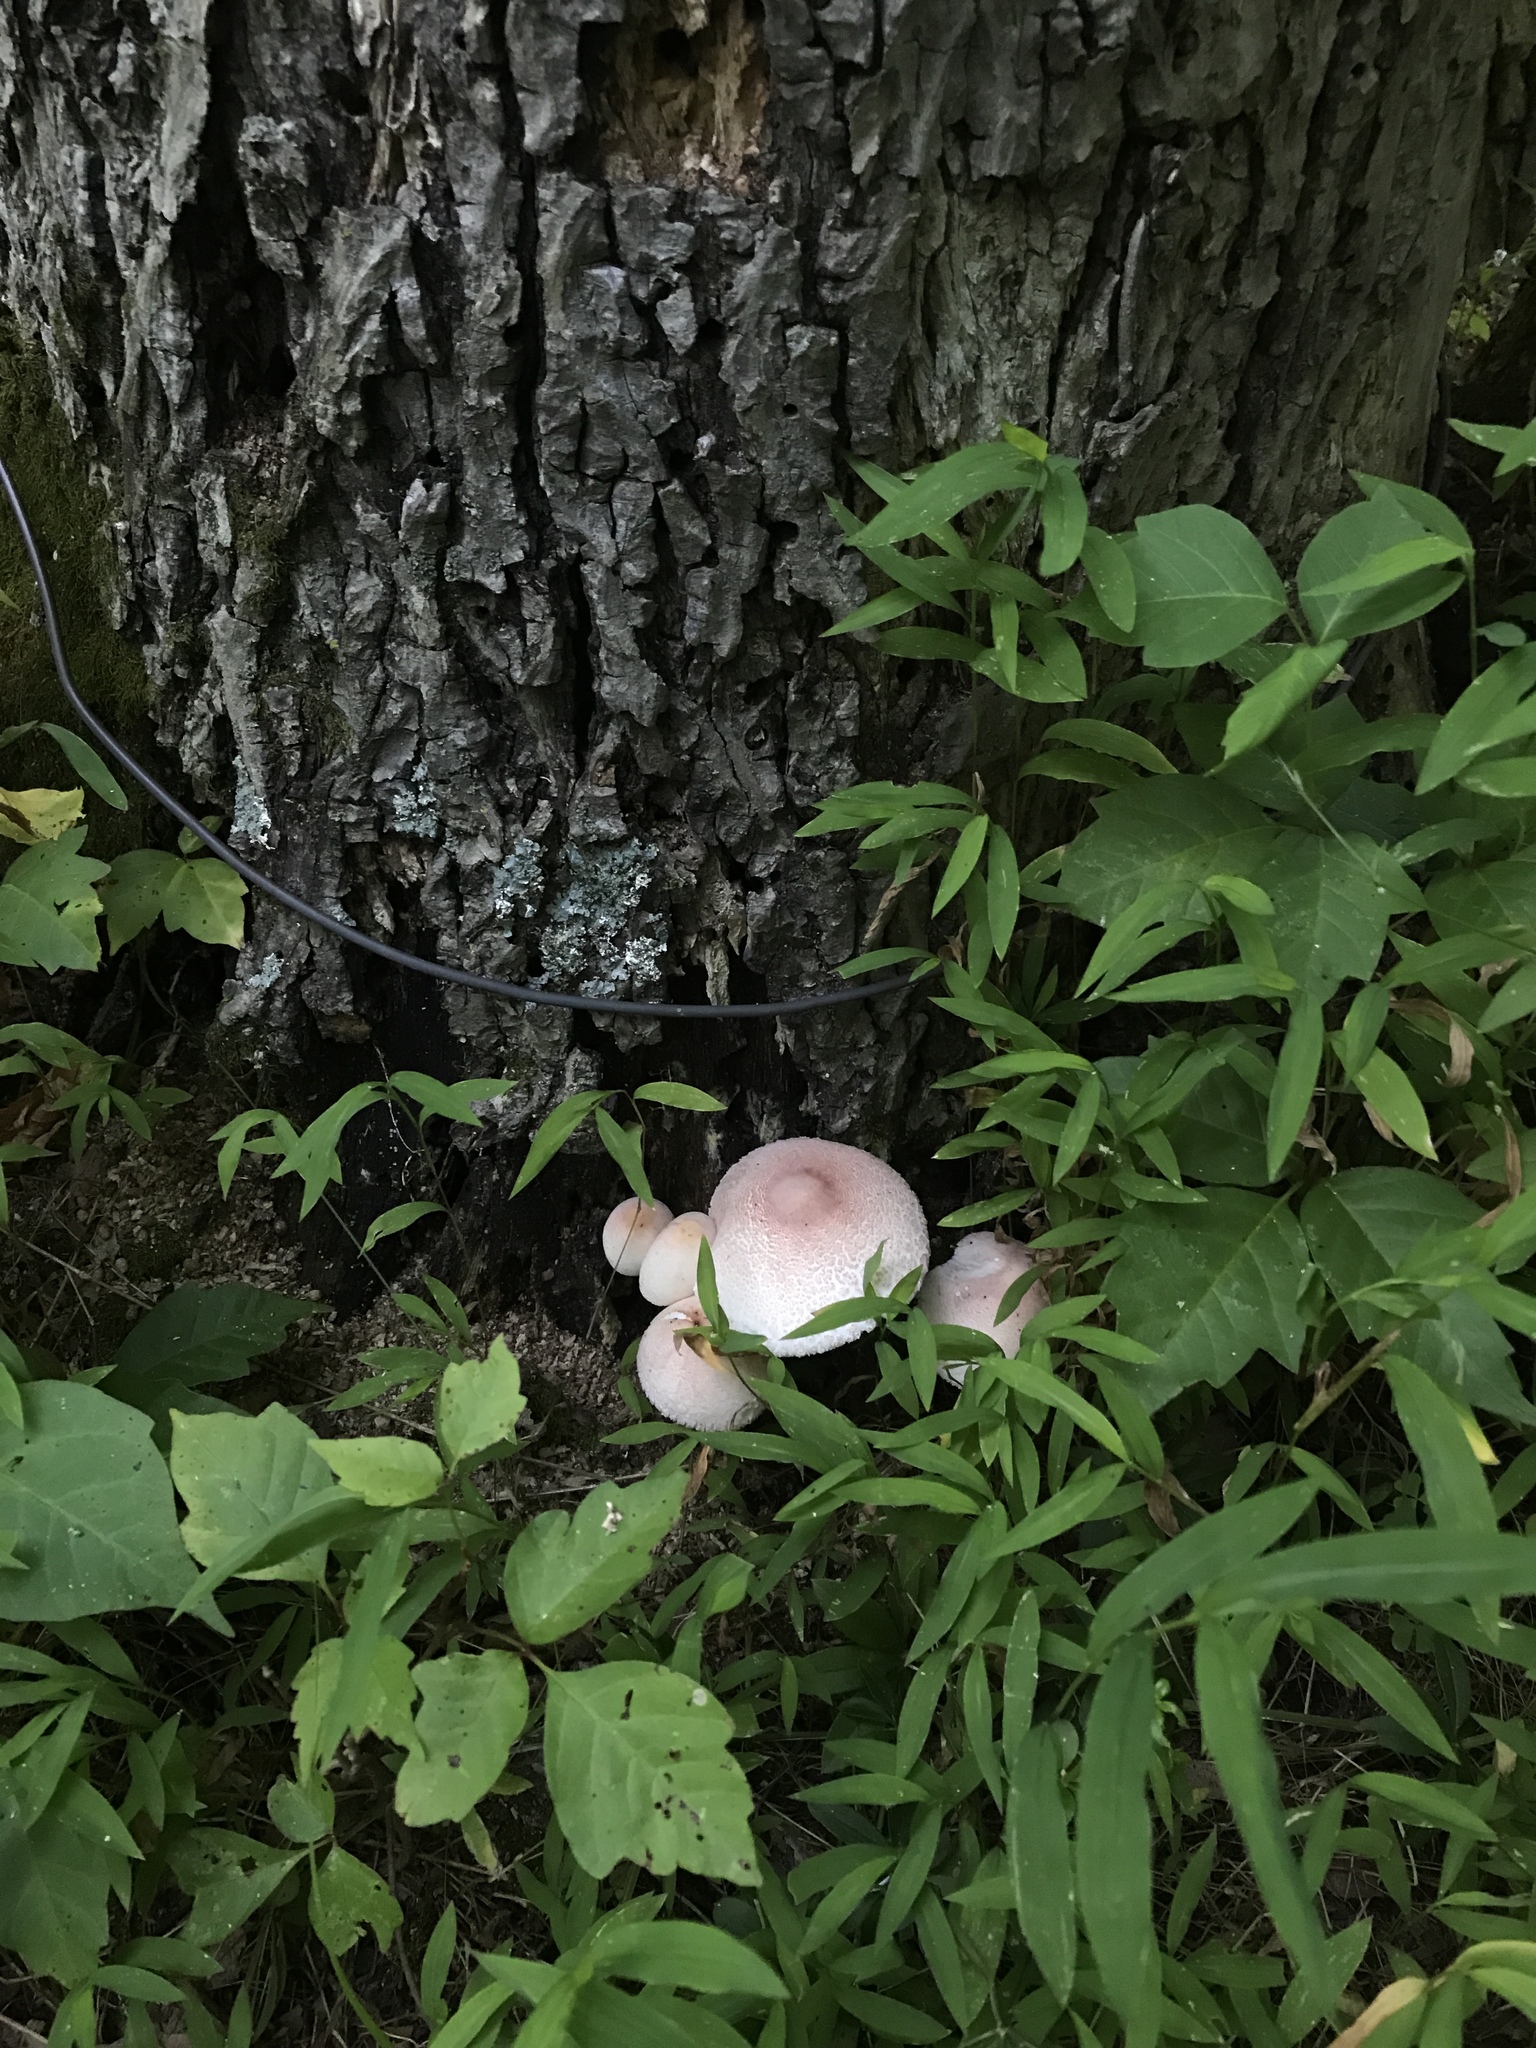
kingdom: Fungi
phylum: Basidiomycota
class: Agaricomycetes
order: Agaricales
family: Agaricaceae
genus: Leucoagaricus
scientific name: Leucoagaricus americanus
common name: Reddening lepiota
